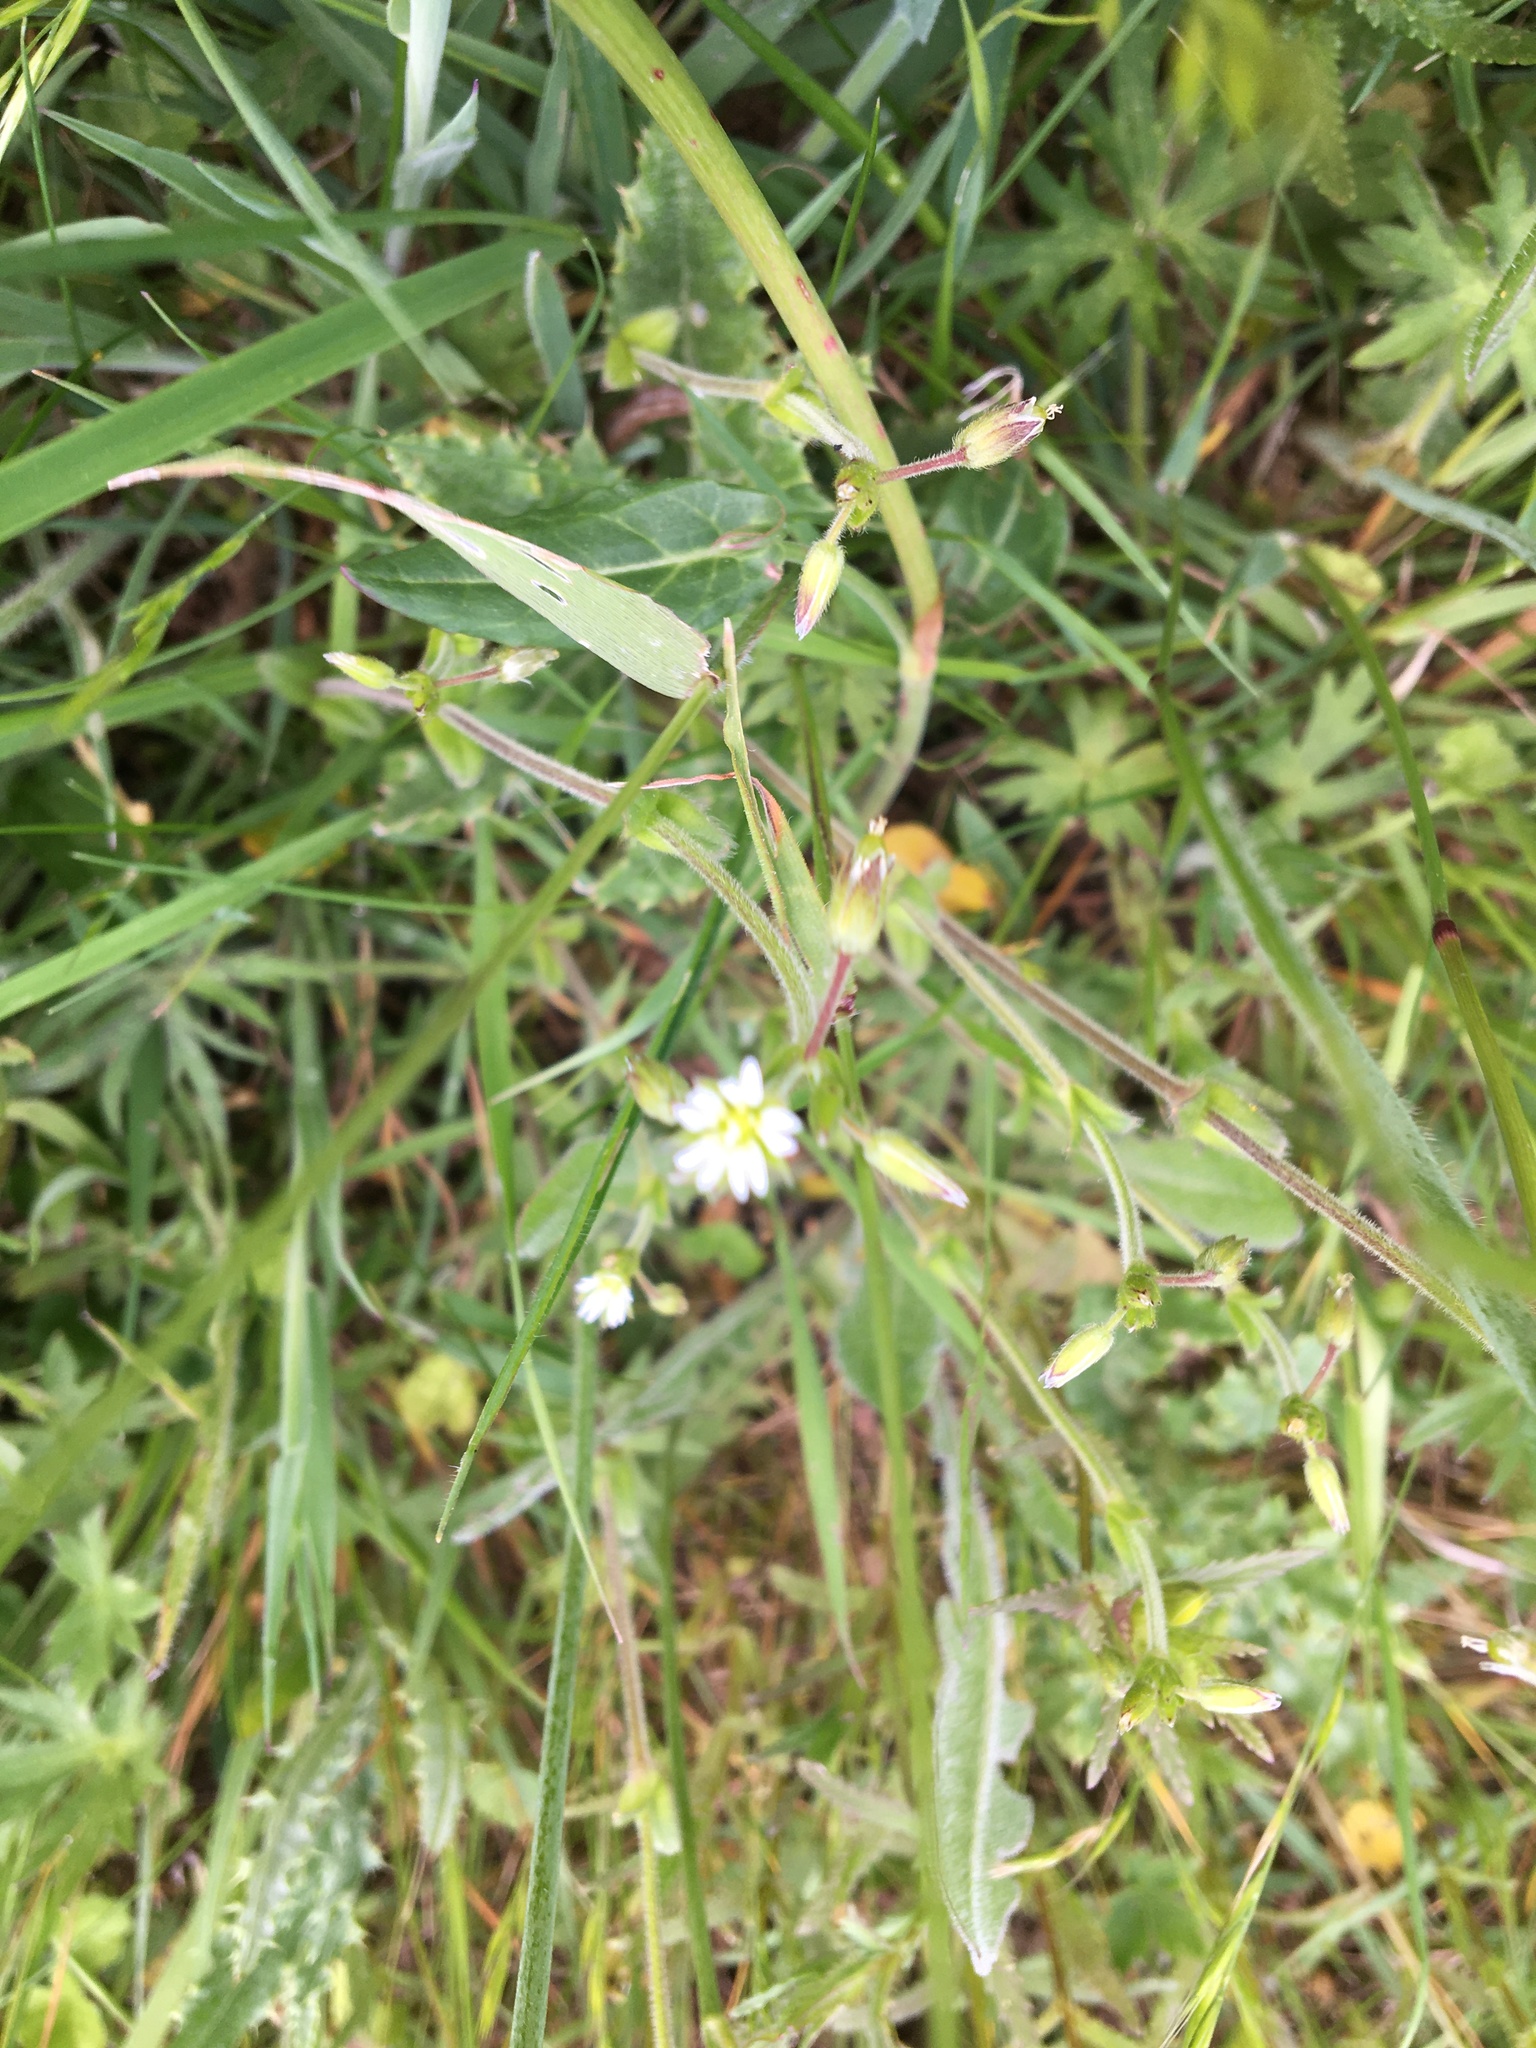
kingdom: Plantae
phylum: Tracheophyta
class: Magnoliopsida
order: Caryophyllales
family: Caryophyllaceae
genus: Cerastium
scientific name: Cerastium fontanum
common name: Common mouse-ear
